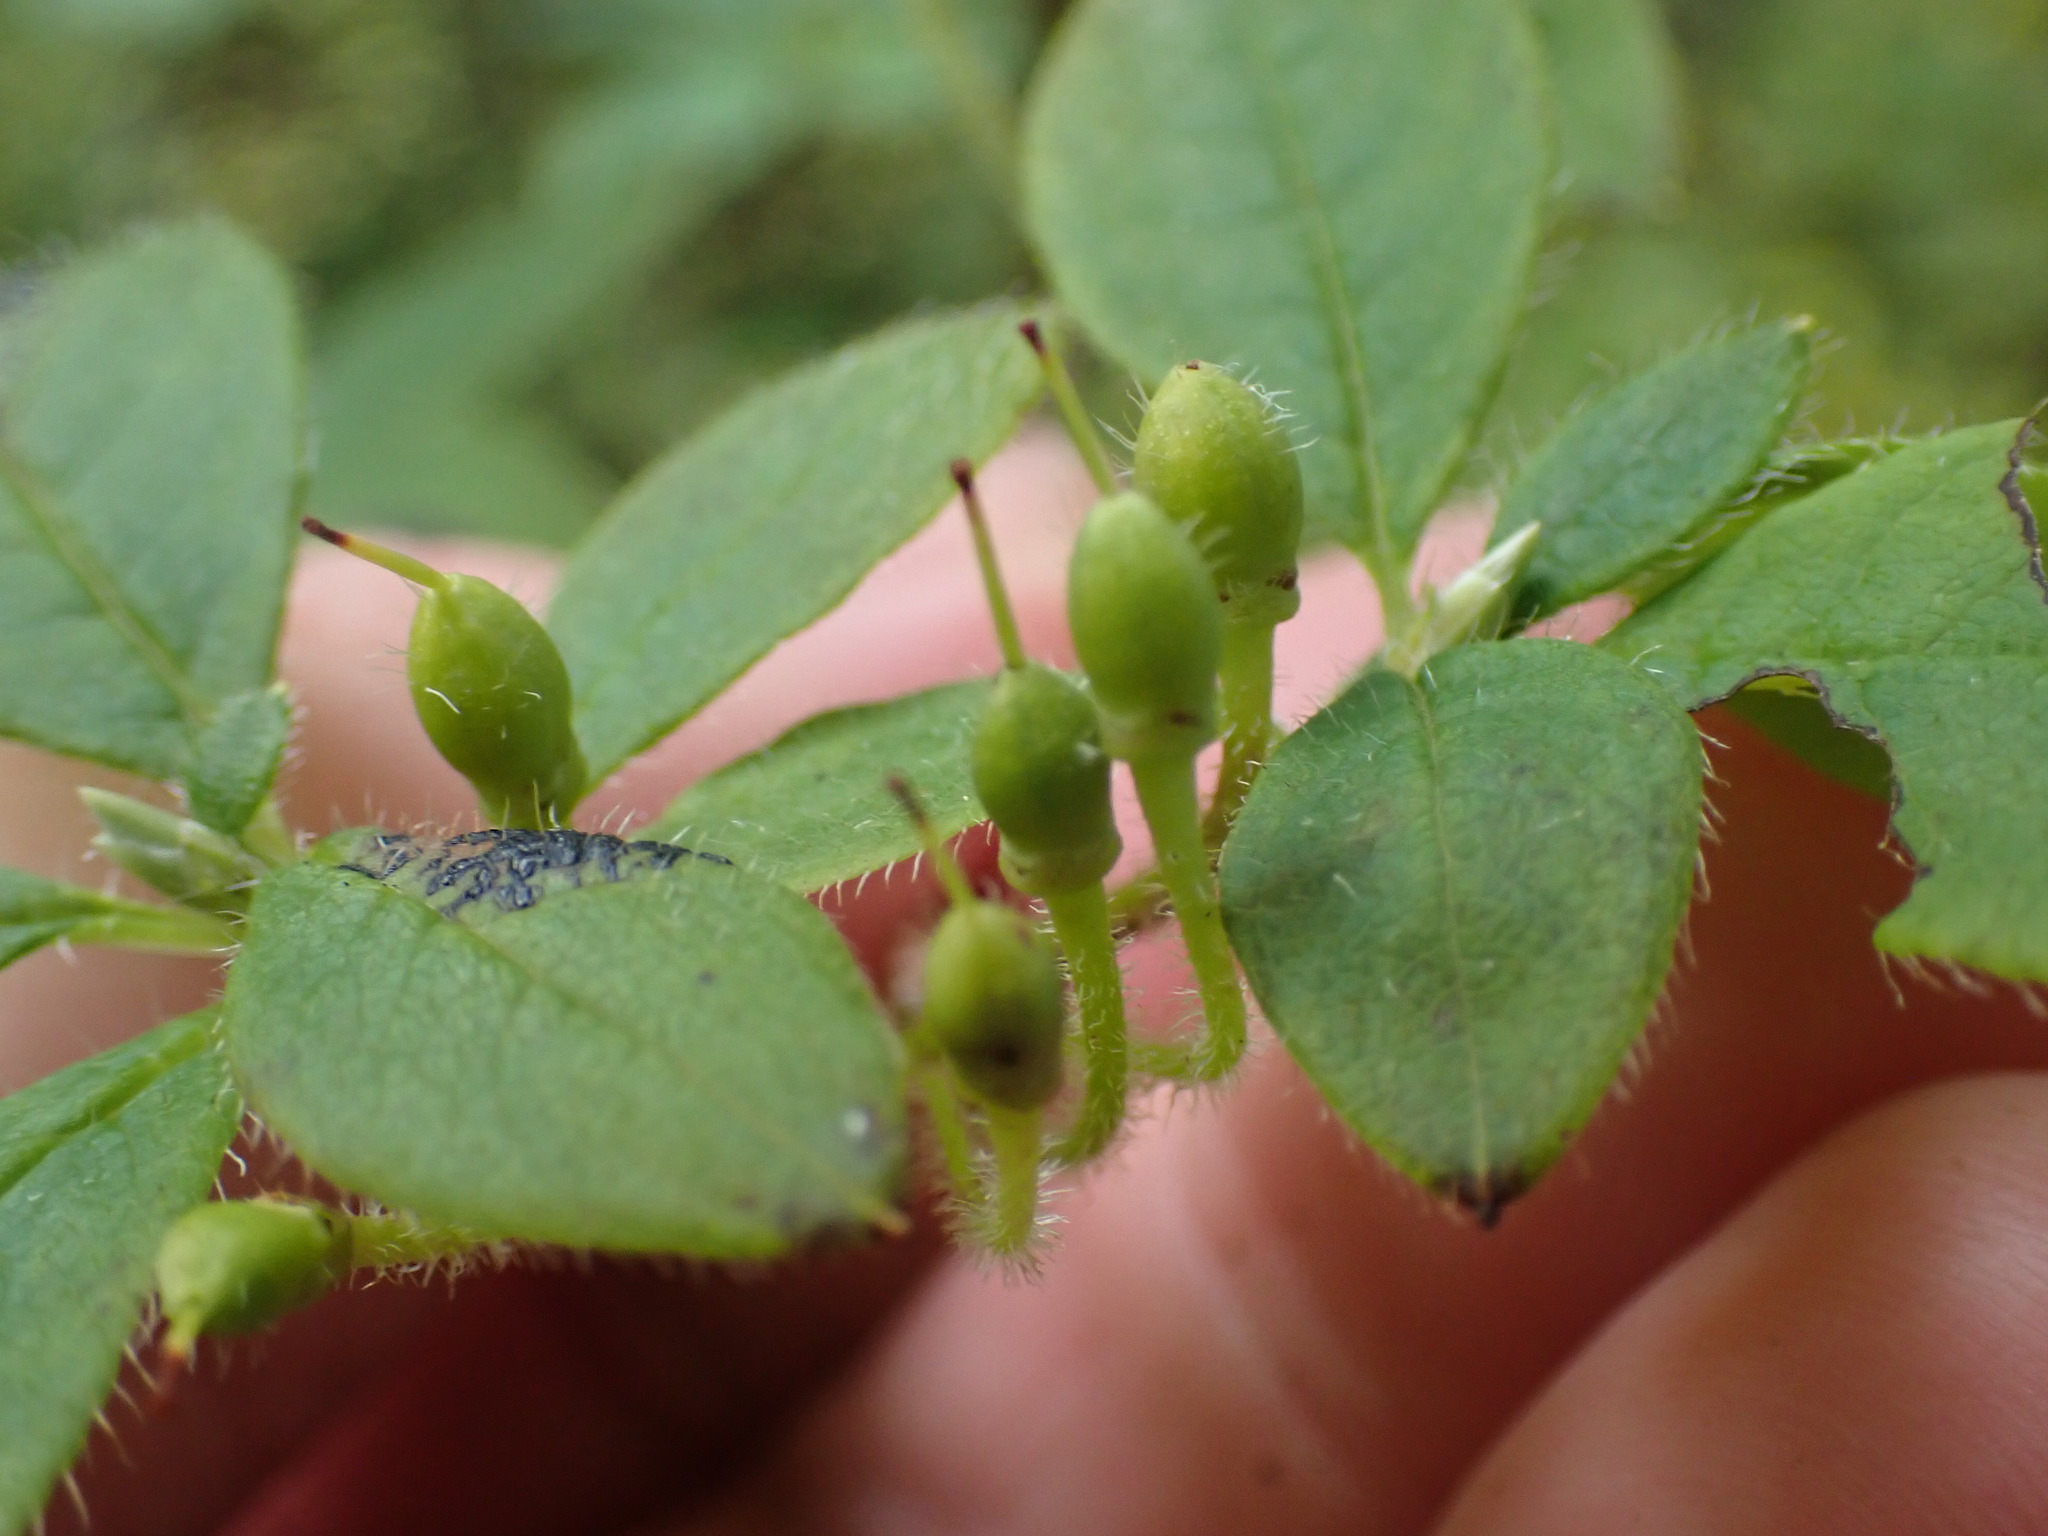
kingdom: Plantae
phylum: Tracheophyta
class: Magnoliopsida
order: Ericales
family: Ericaceae
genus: Rhododendron
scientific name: Rhododendron menziesii
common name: Pacific menziesia
